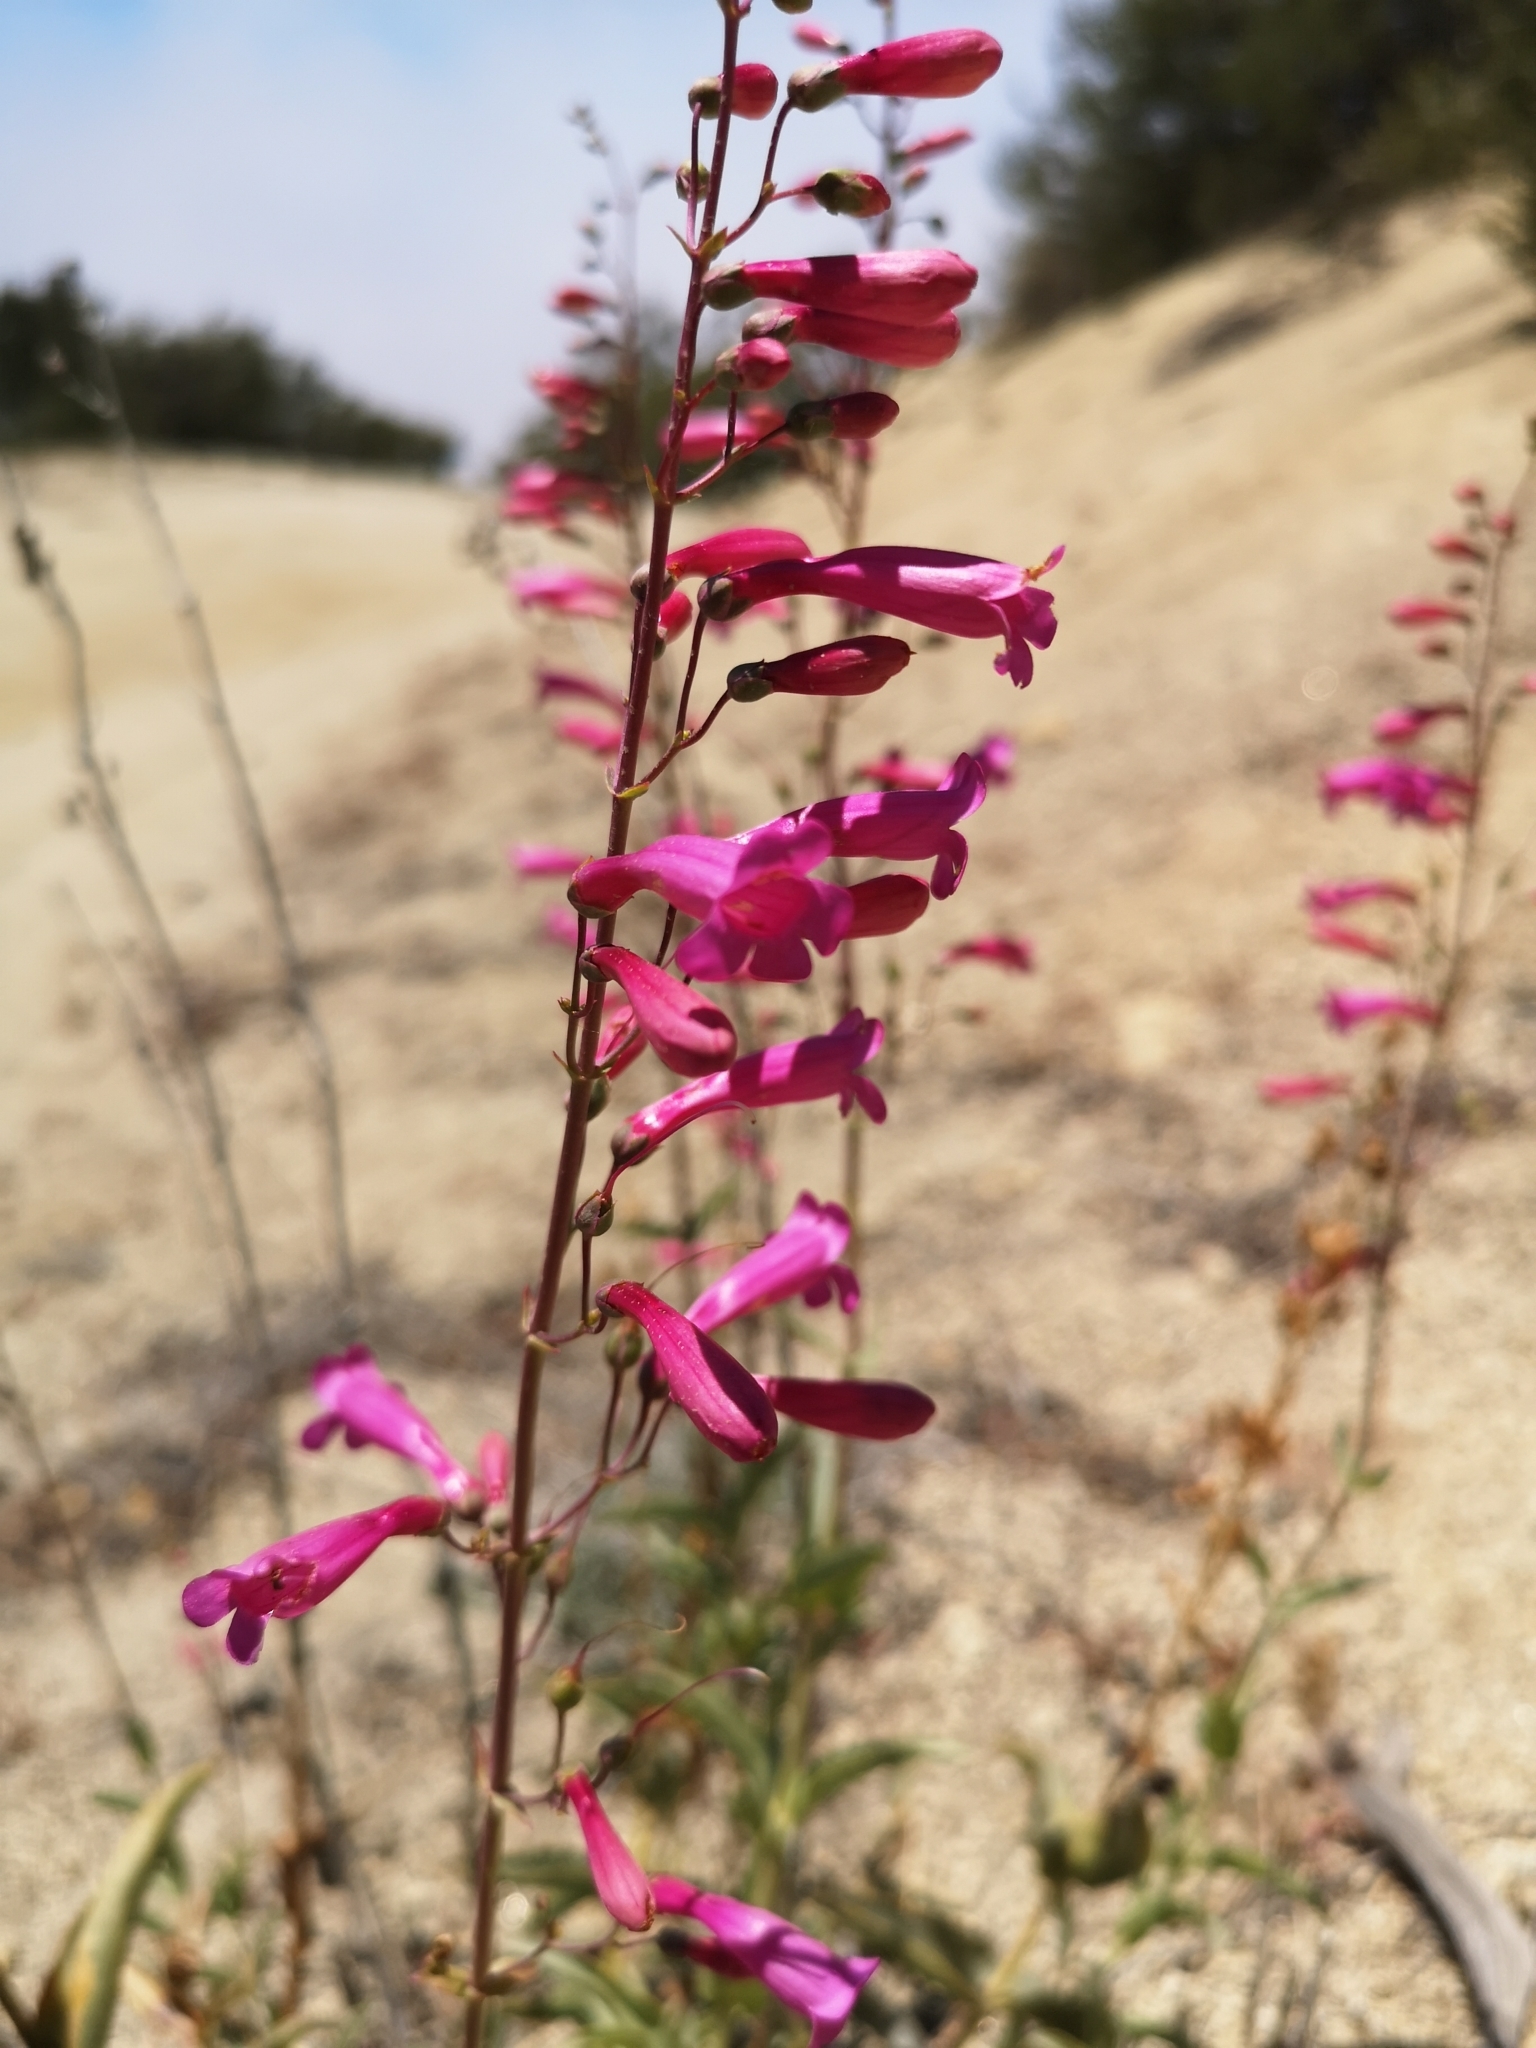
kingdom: Plantae
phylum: Tracheophyta
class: Magnoliopsida
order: Lamiales
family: Plantaginaceae
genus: Penstemon
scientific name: Penstemon parishii
